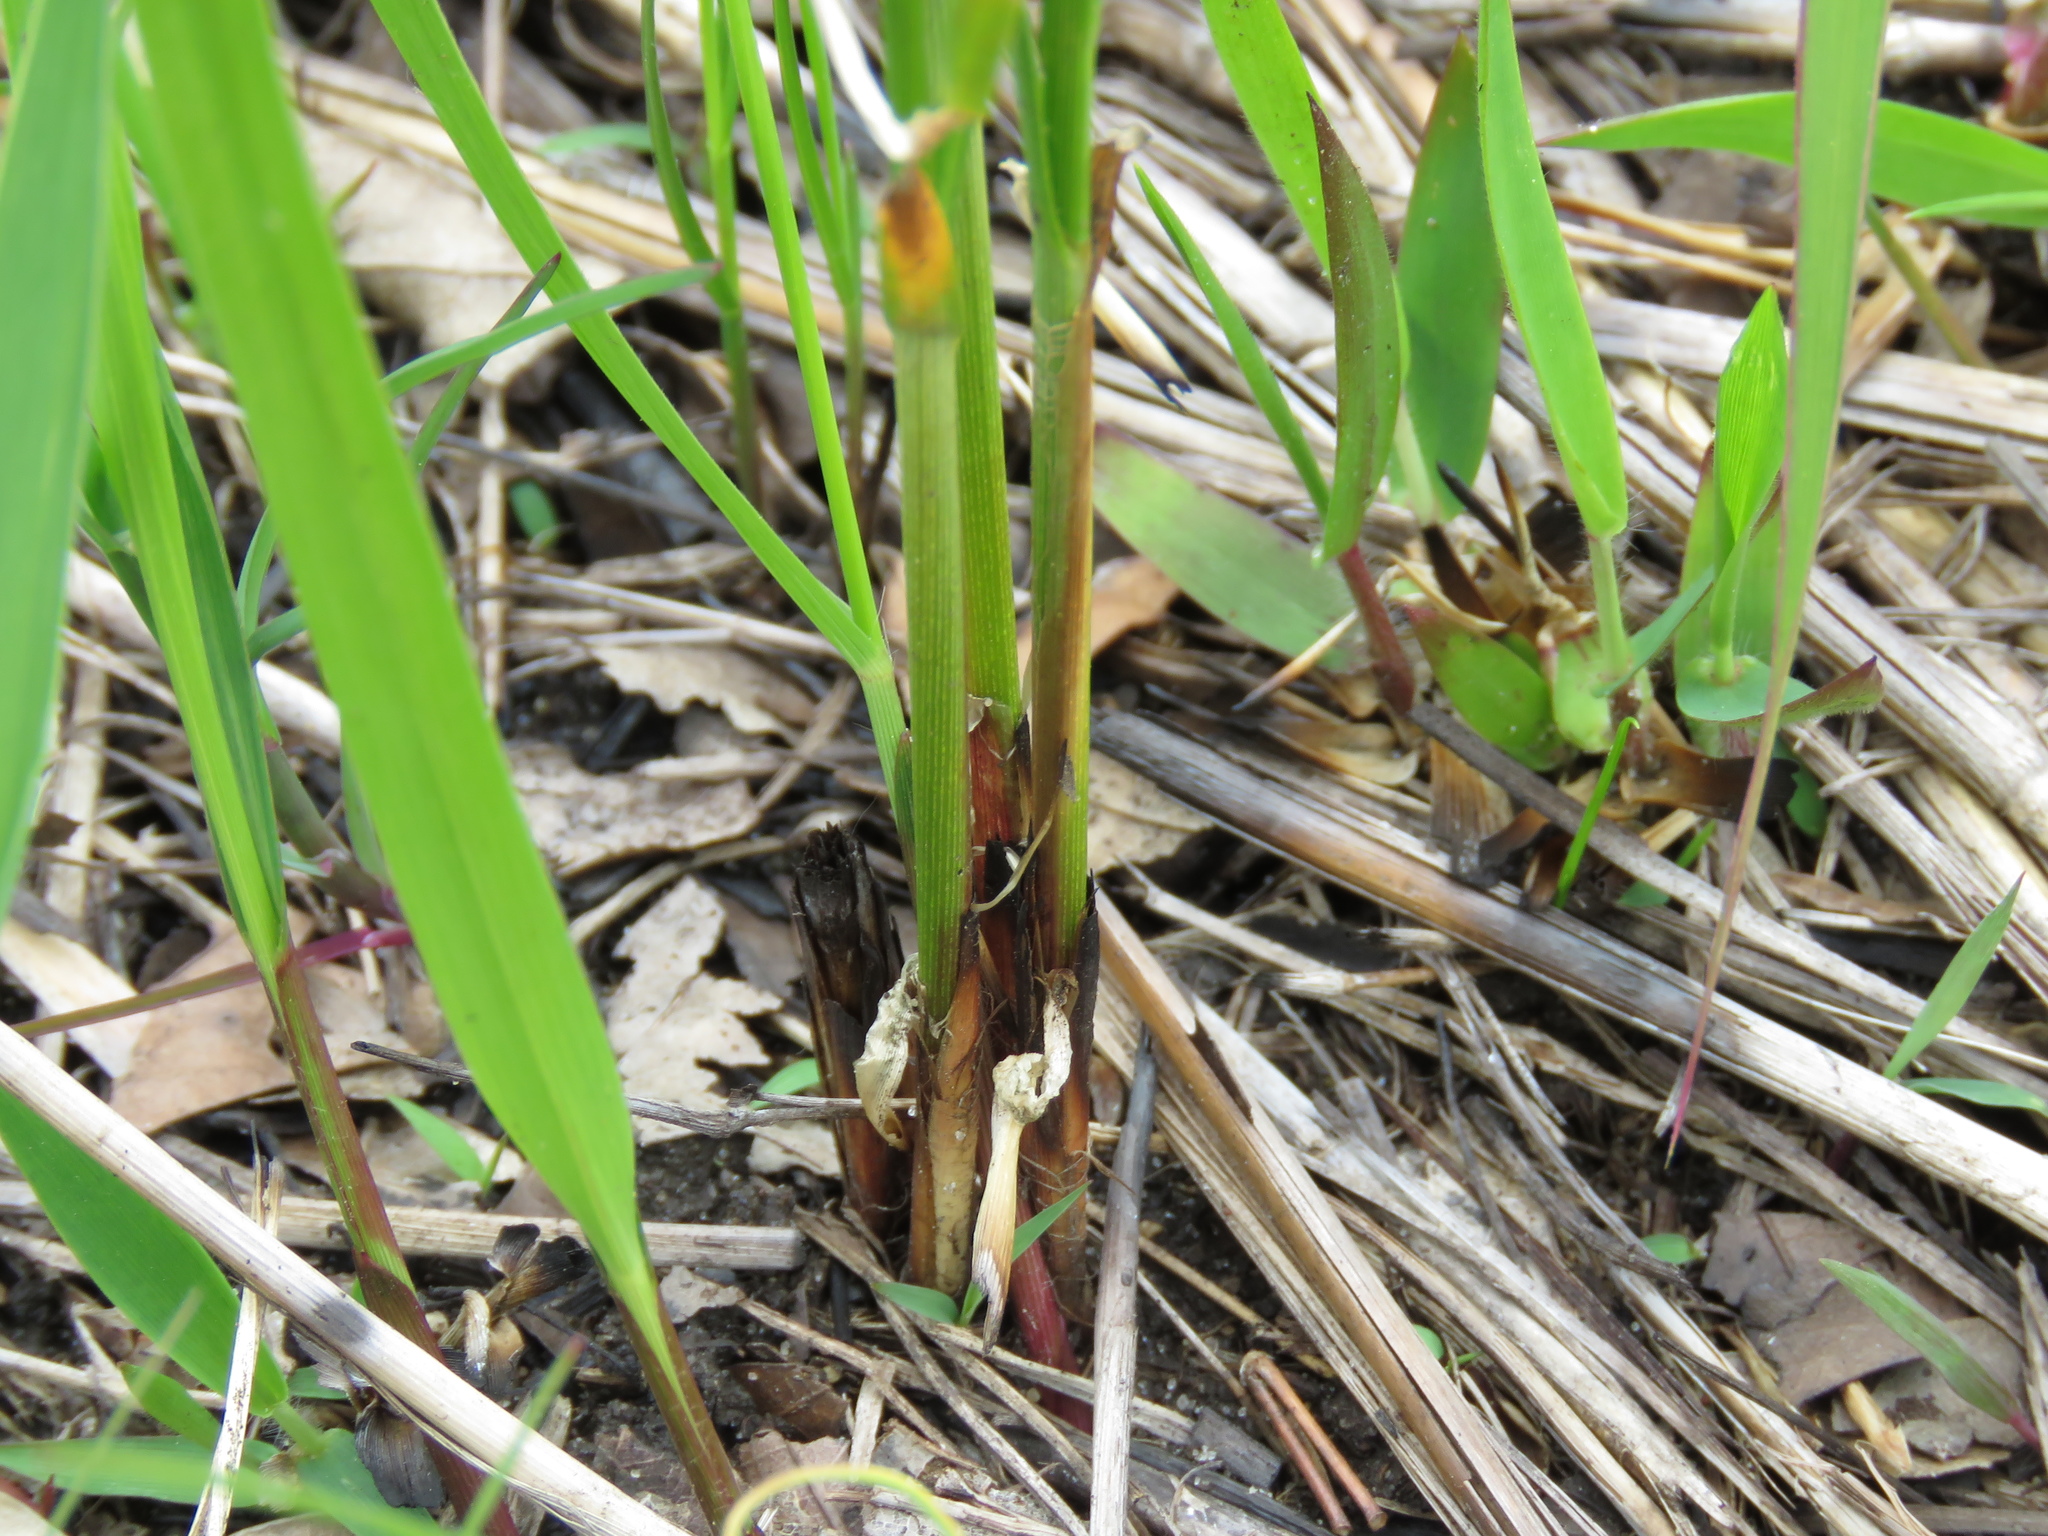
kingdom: Plantae
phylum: Tracheophyta
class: Liliopsida
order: Poales
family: Cyperaceae
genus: Carex
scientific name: Carex pellita
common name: Woolly sedge
